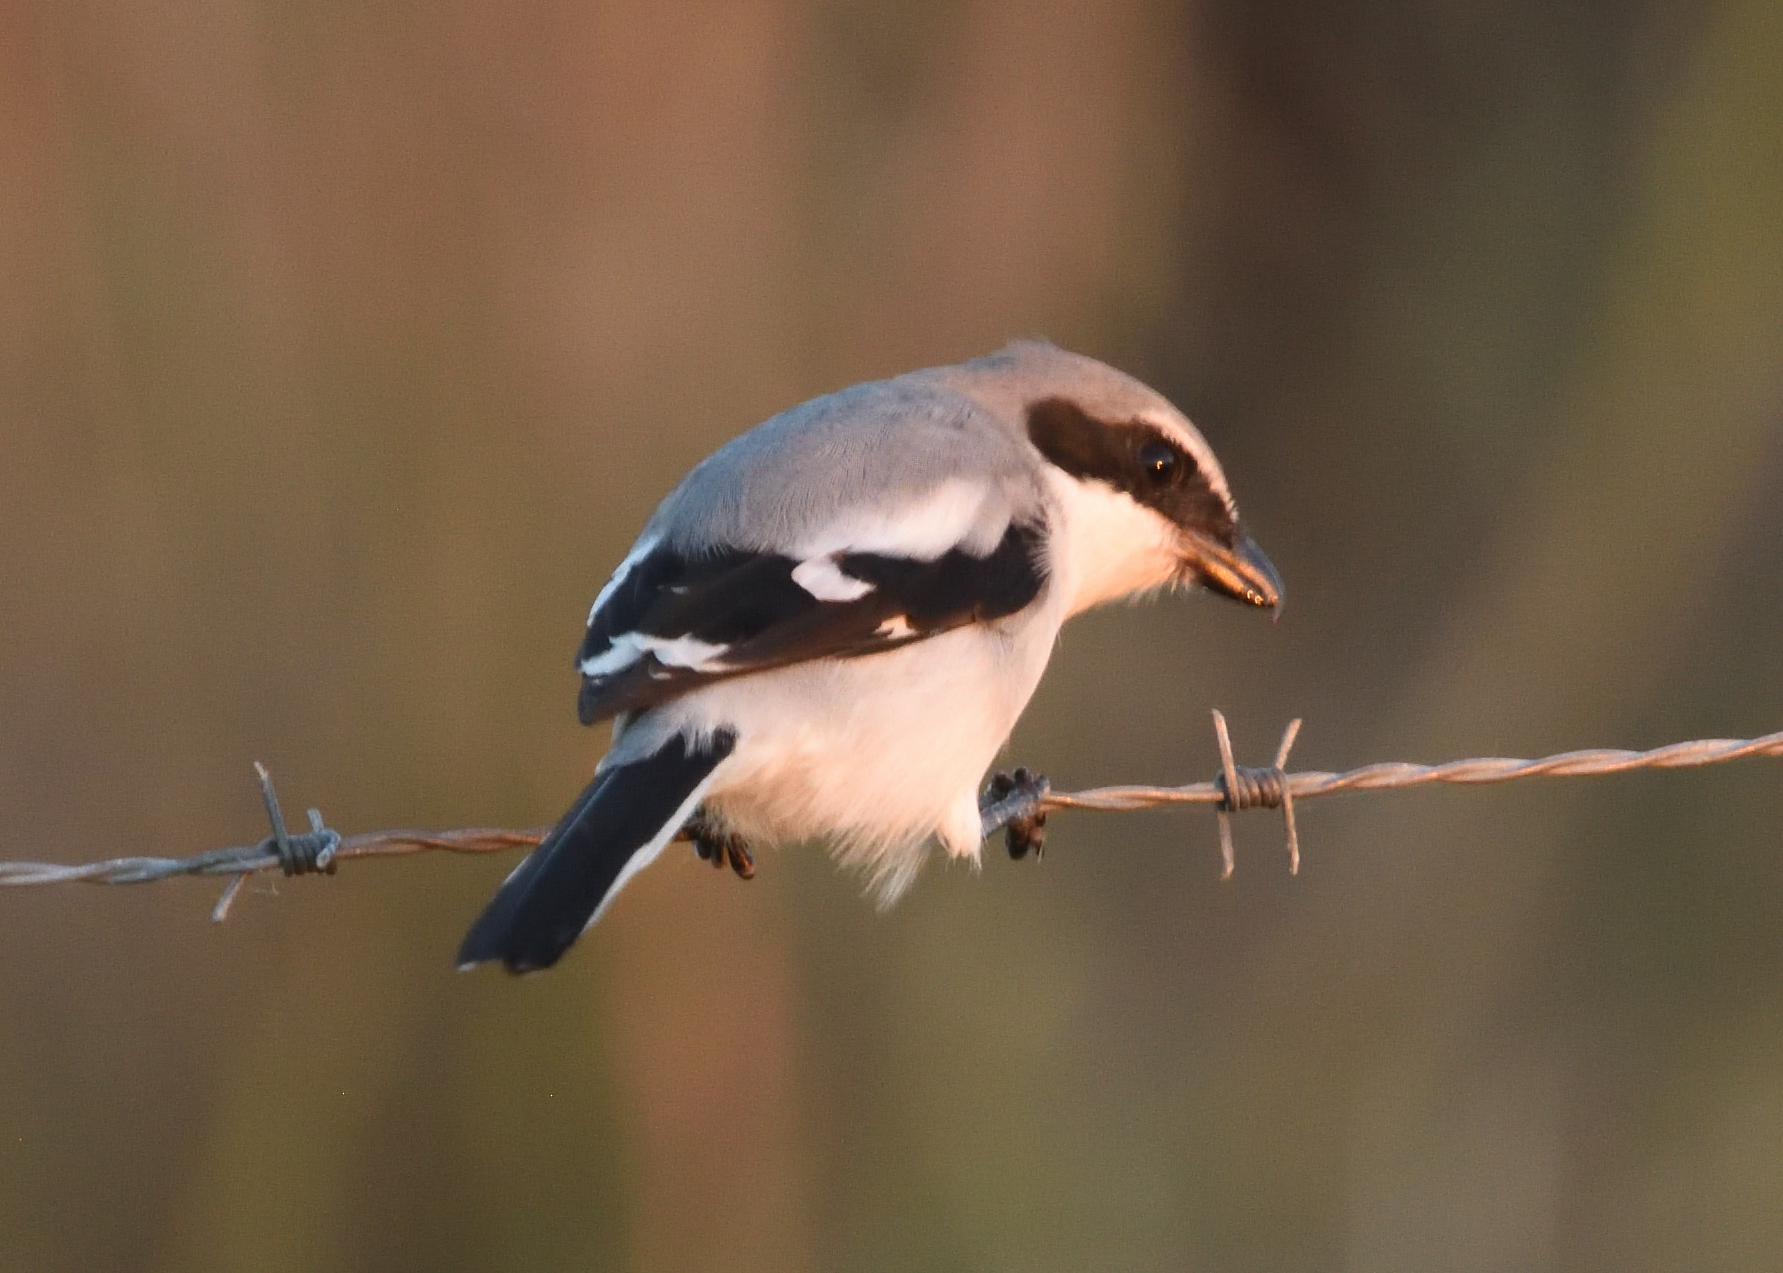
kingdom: Animalia
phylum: Chordata
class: Aves
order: Passeriformes
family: Laniidae
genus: Lanius
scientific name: Lanius ludovicianus
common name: Loggerhead shrike
